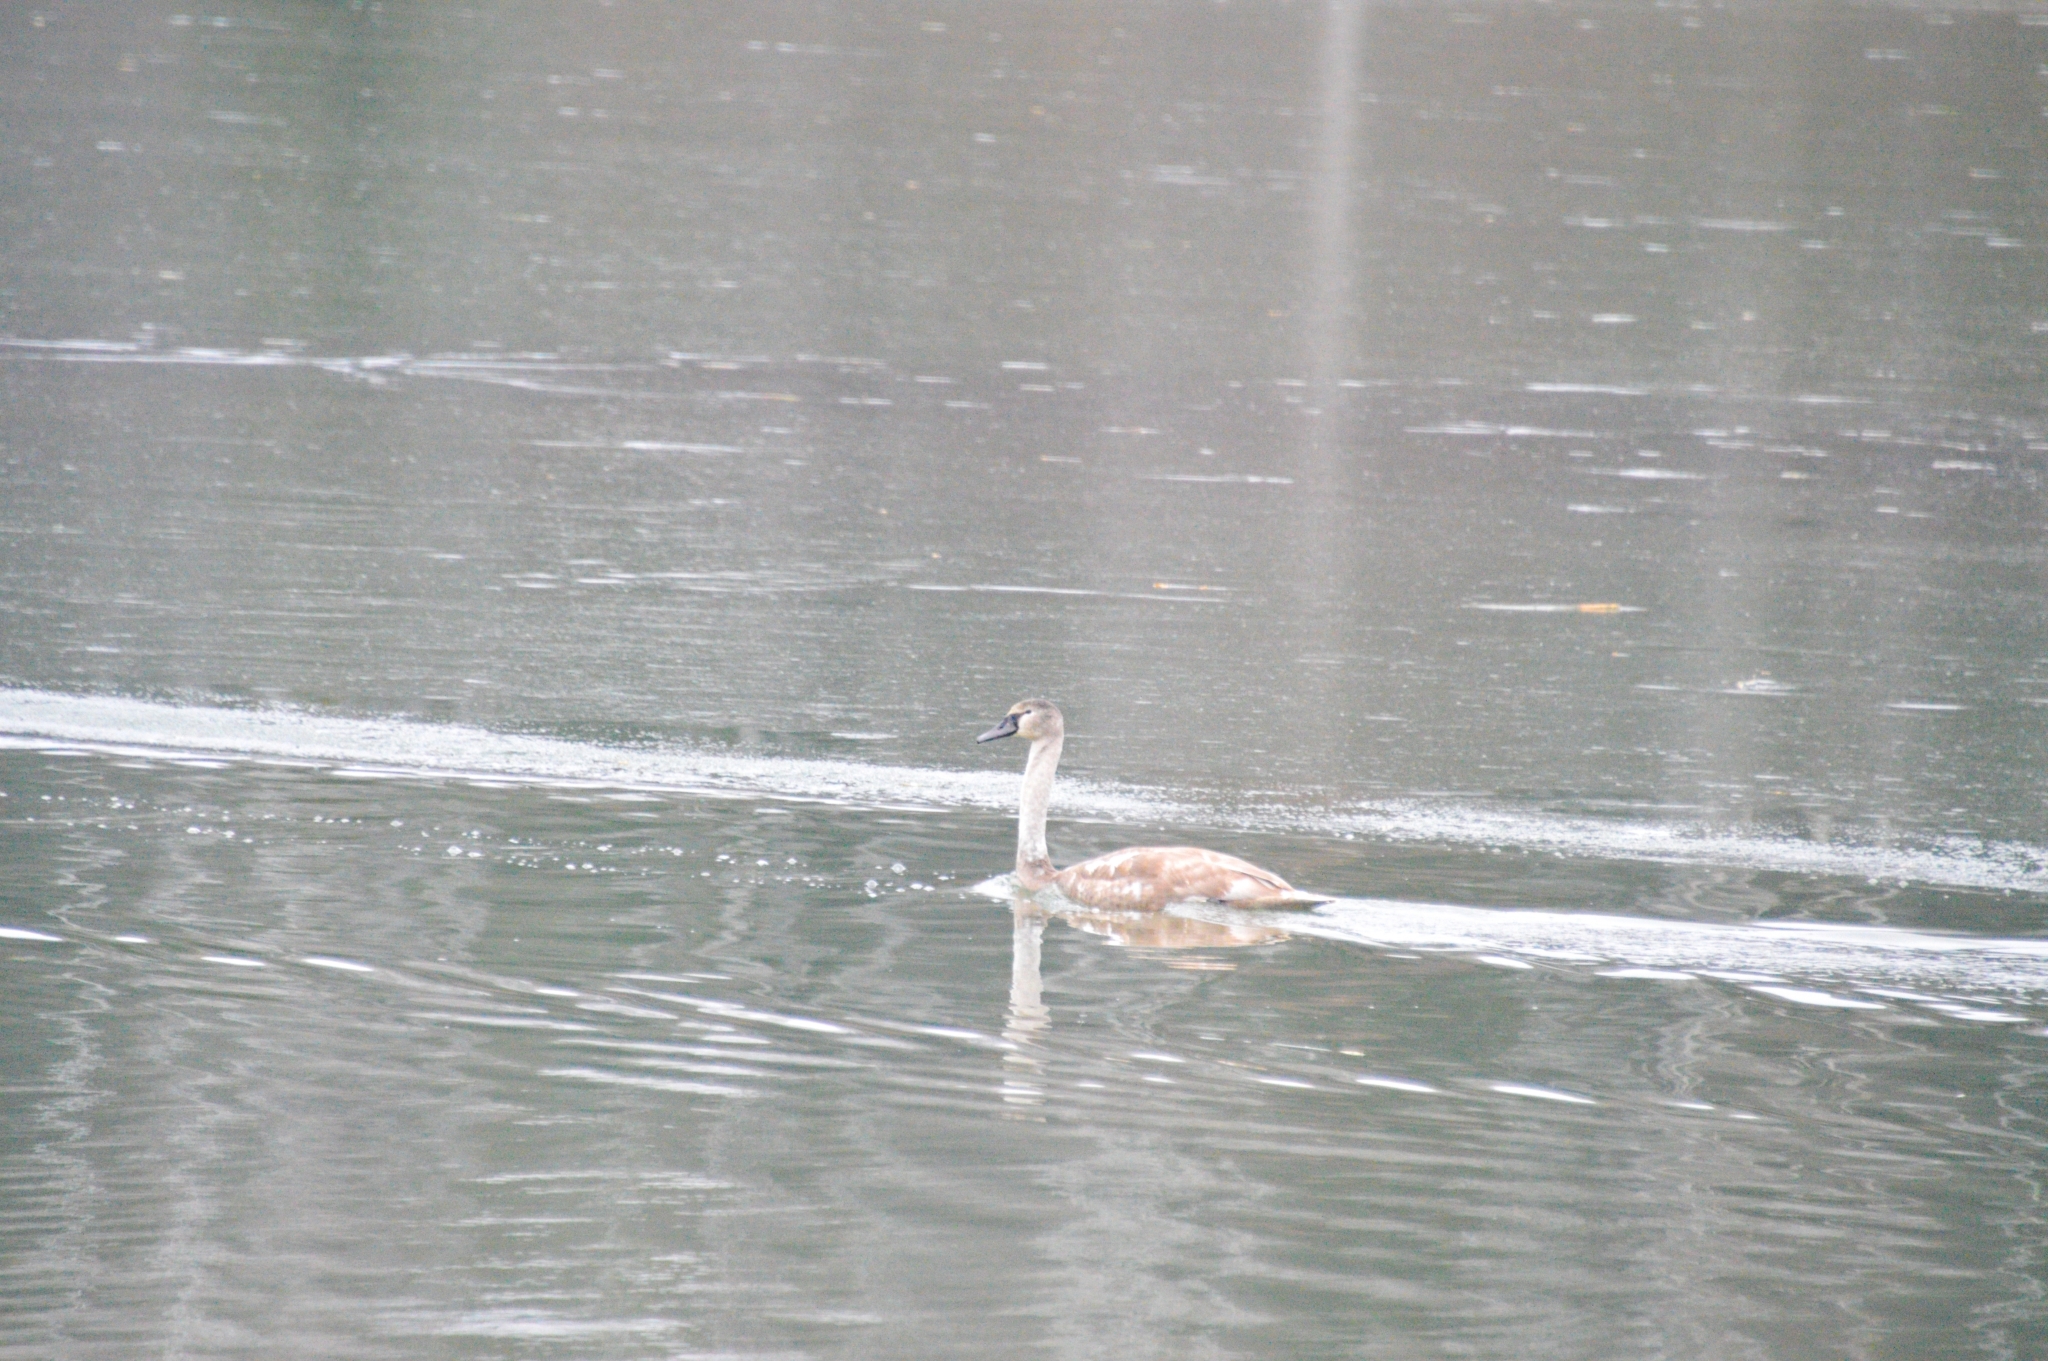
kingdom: Animalia
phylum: Chordata
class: Aves
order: Anseriformes
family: Anatidae
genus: Cygnus
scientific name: Cygnus olor
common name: Mute swan
